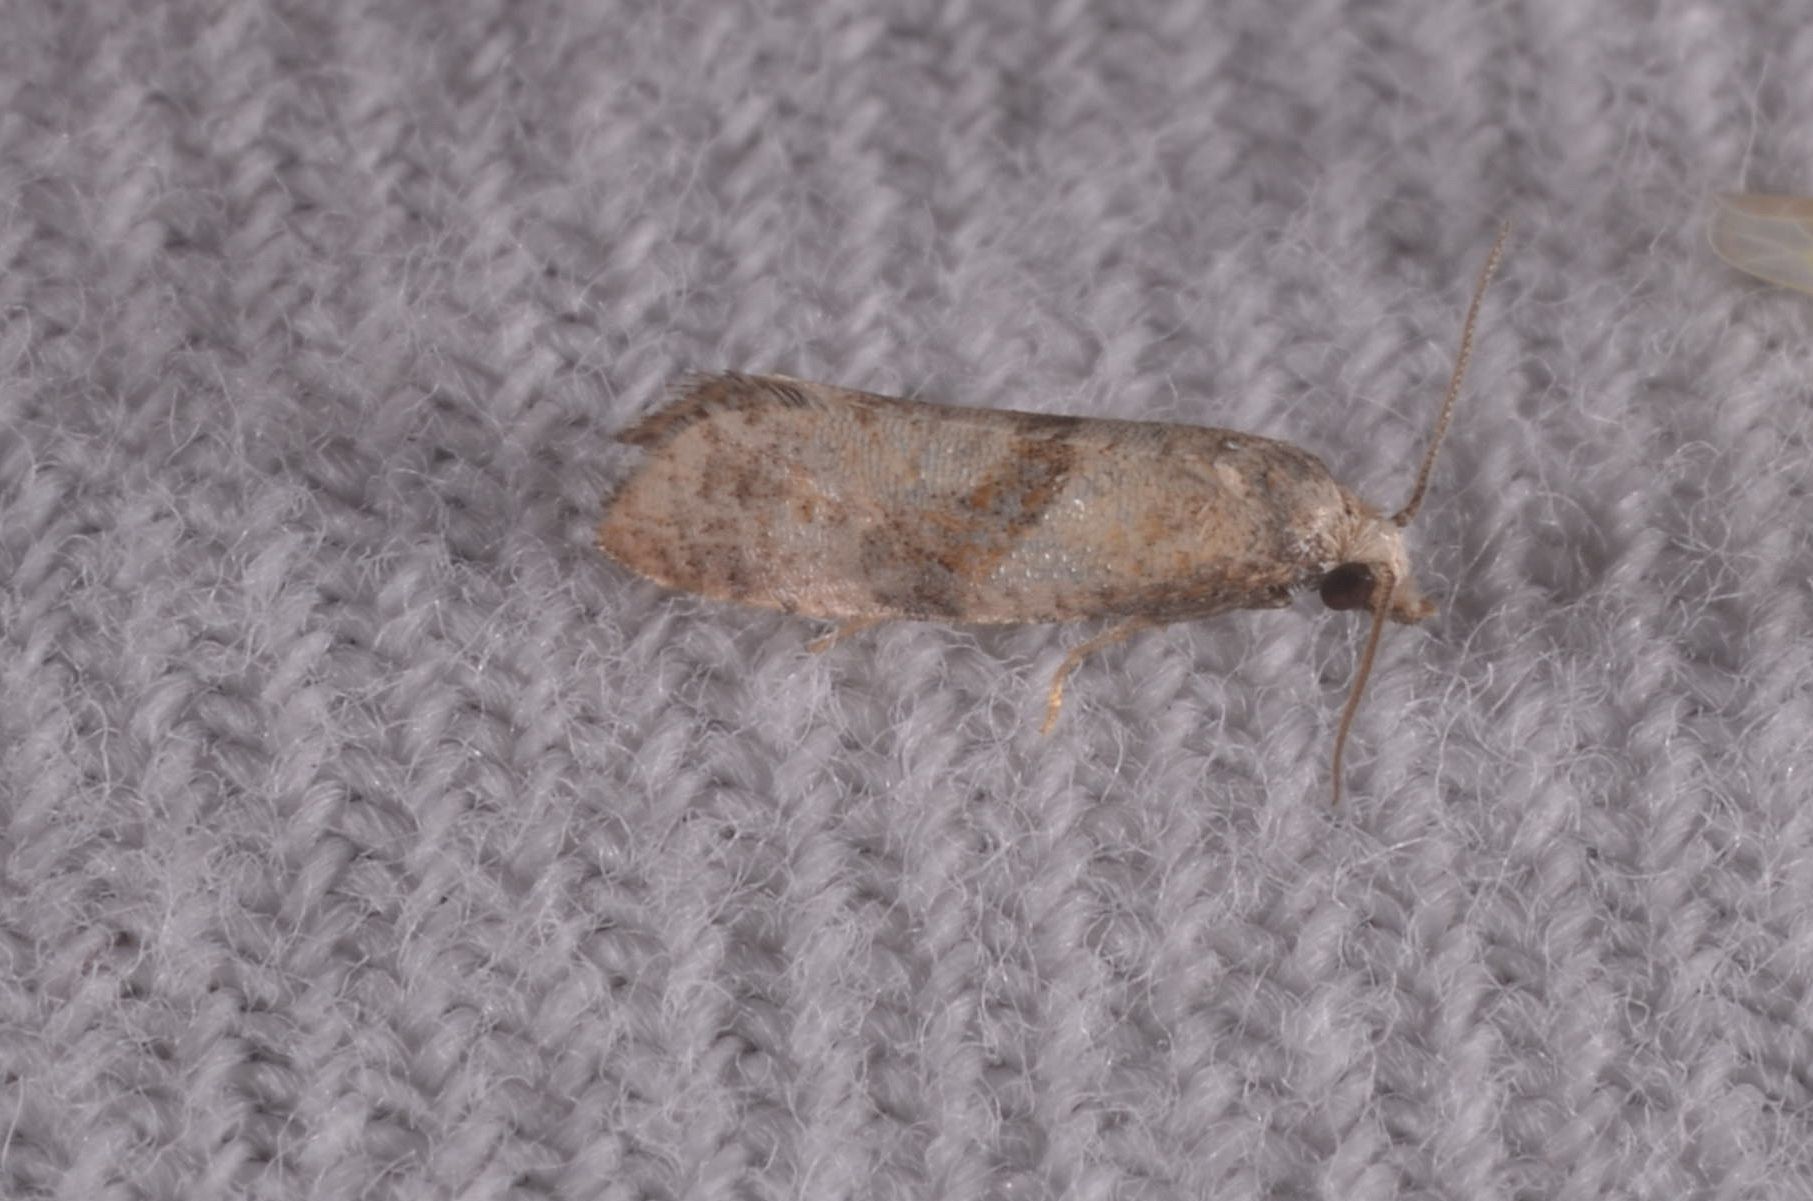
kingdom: Animalia
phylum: Arthropoda
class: Insecta
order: Lepidoptera
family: Tortricidae
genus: Cochylidia
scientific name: Cochylidia implicitana
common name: Chamomile conch
